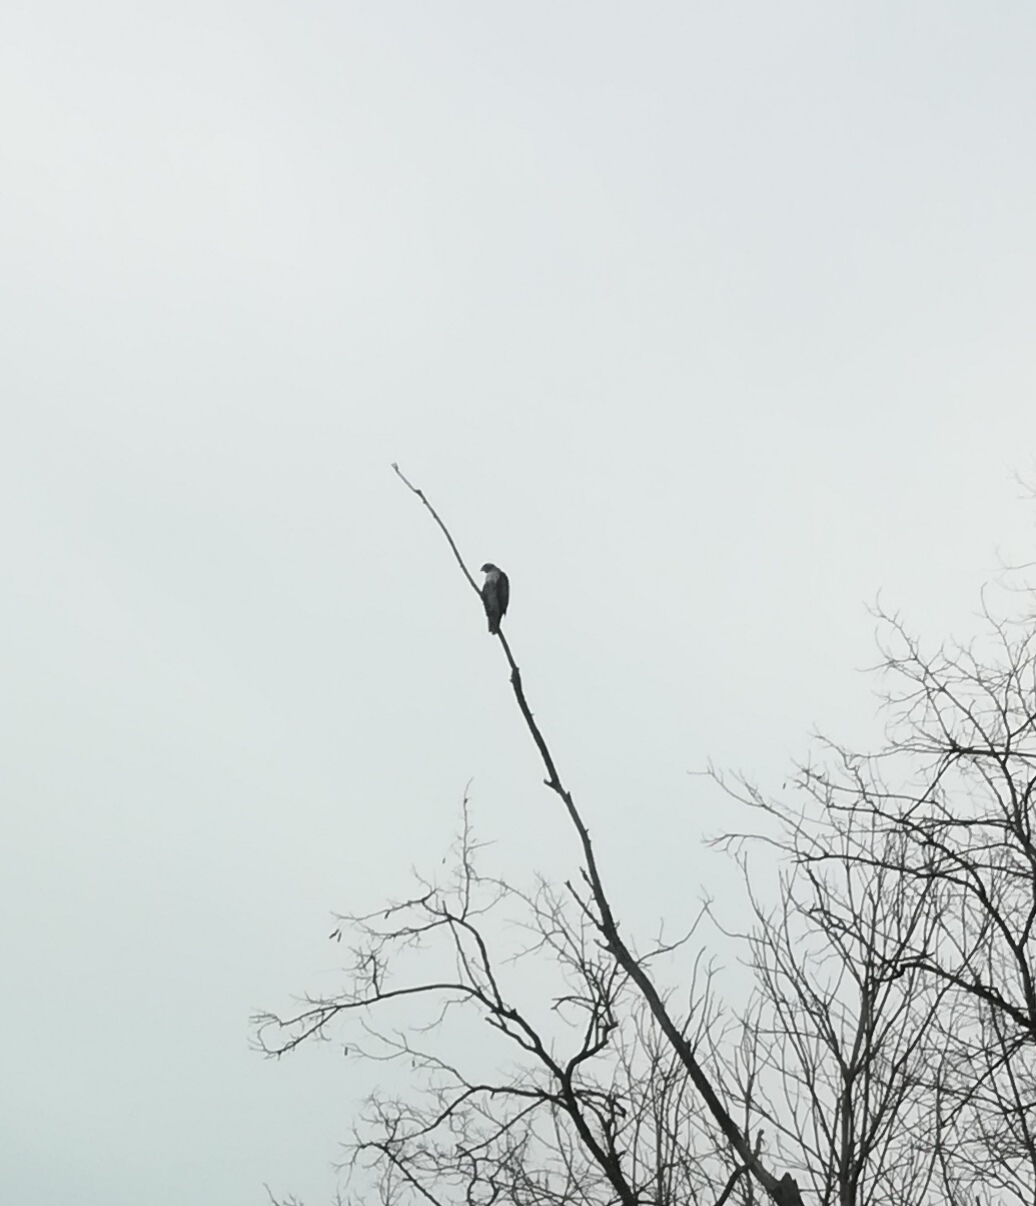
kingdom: Animalia
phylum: Chordata
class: Aves
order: Accipitriformes
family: Accipitridae
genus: Buteo
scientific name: Buteo jamaicensis
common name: Red-tailed hawk
